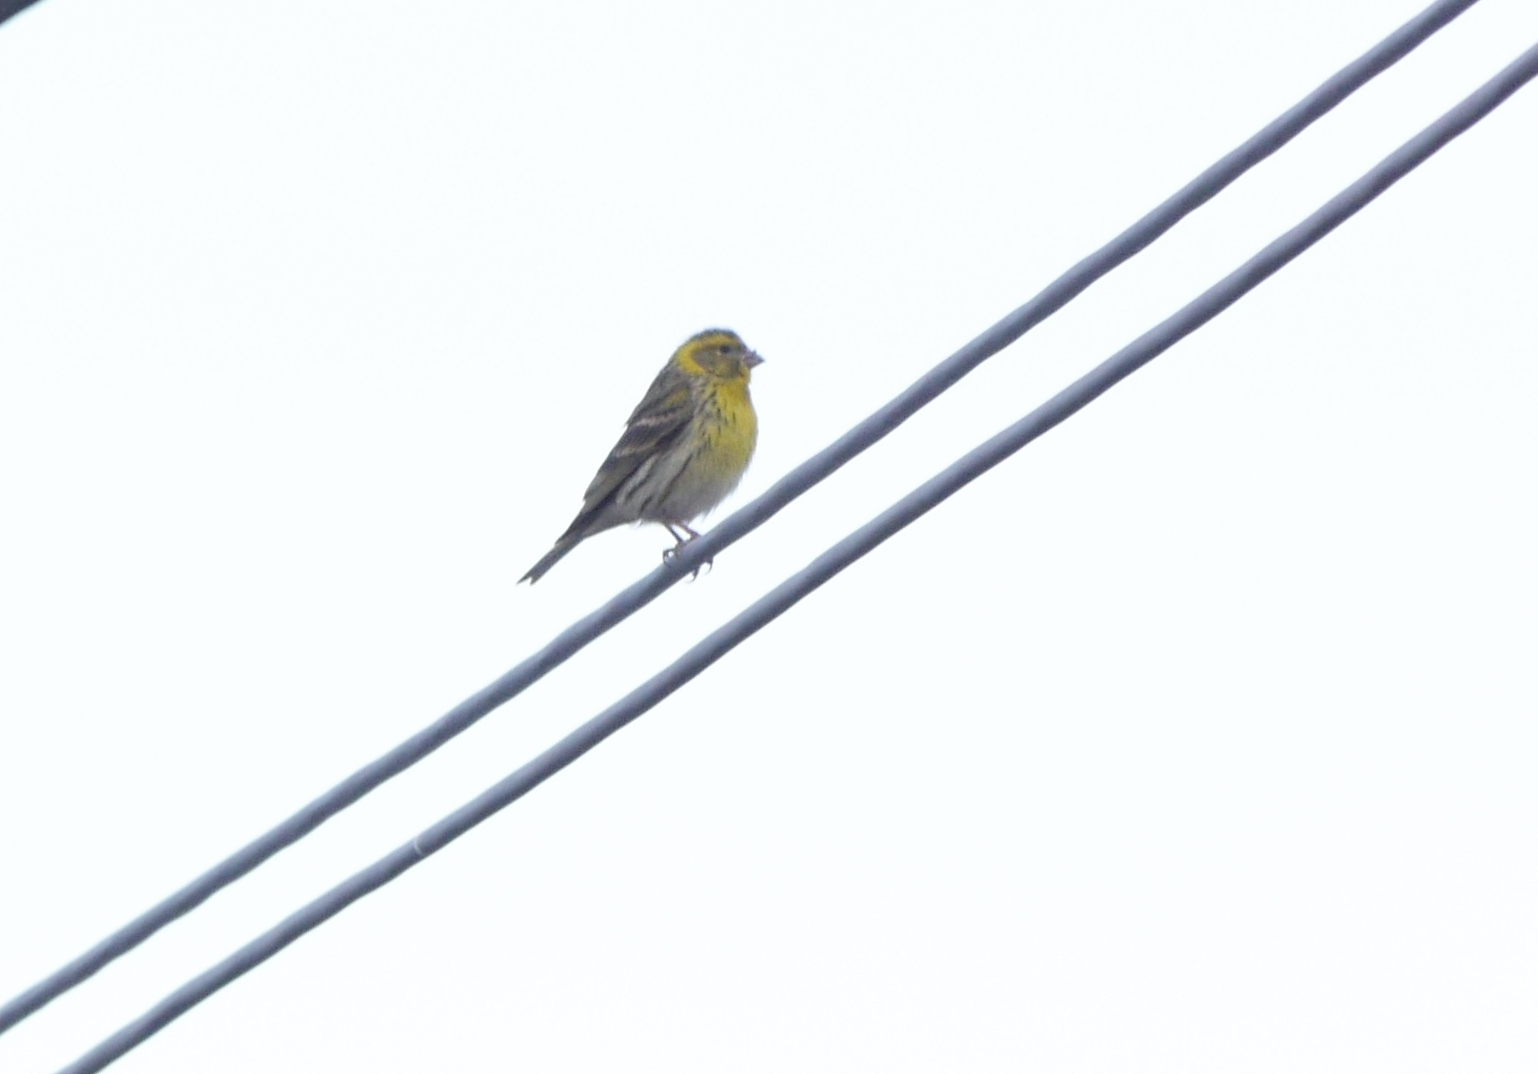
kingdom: Animalia
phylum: Chordata
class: Aves
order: Passeriformes
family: Fringillidae
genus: Serinus
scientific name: Serinus serinus
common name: European serin
